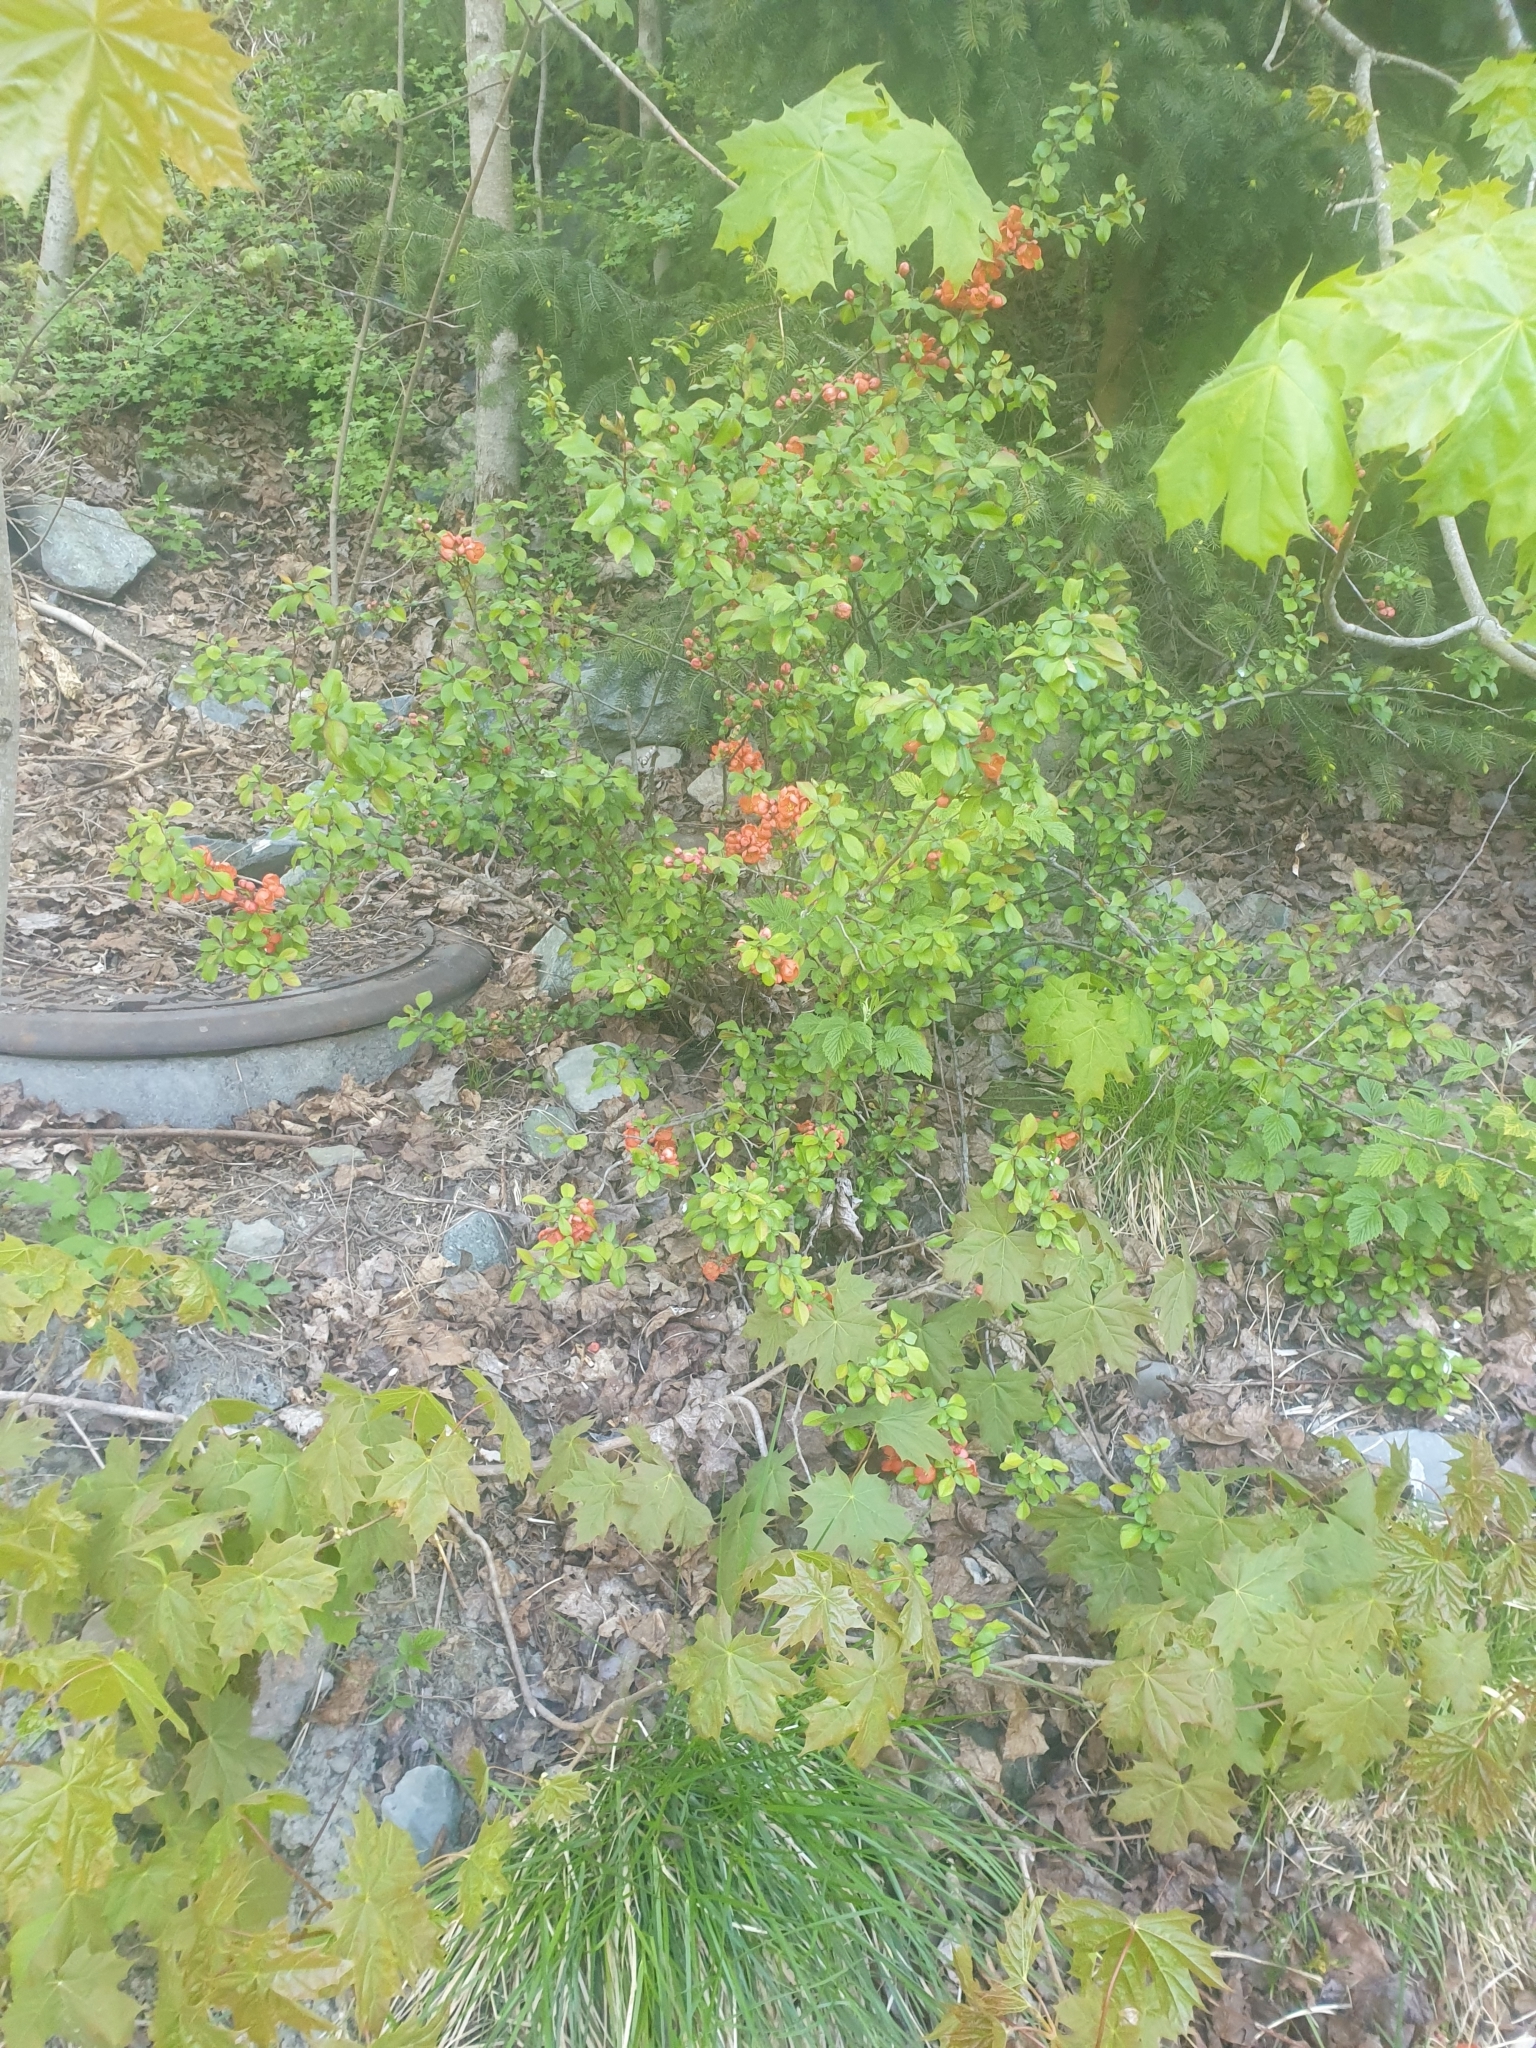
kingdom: Plantae
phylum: Tracheophyta
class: Magnoliopsida
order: Rosales
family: Rosaceae
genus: Chaenomeles
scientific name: Chaenomeles japonica
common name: Japanese quince
